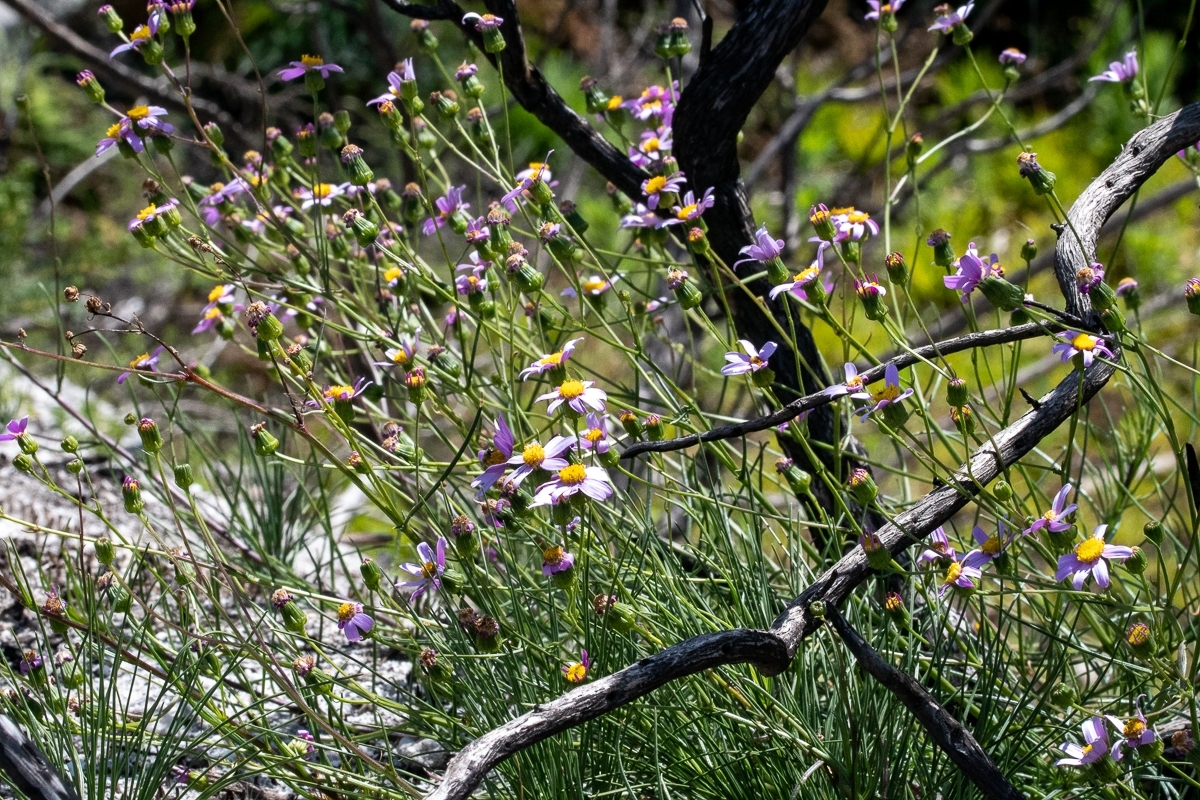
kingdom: Plantae
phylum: Tracheophyta
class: Magnoliopsida
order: Asterales
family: Asteraceae
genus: Senecio
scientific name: Senecio umbellatus
